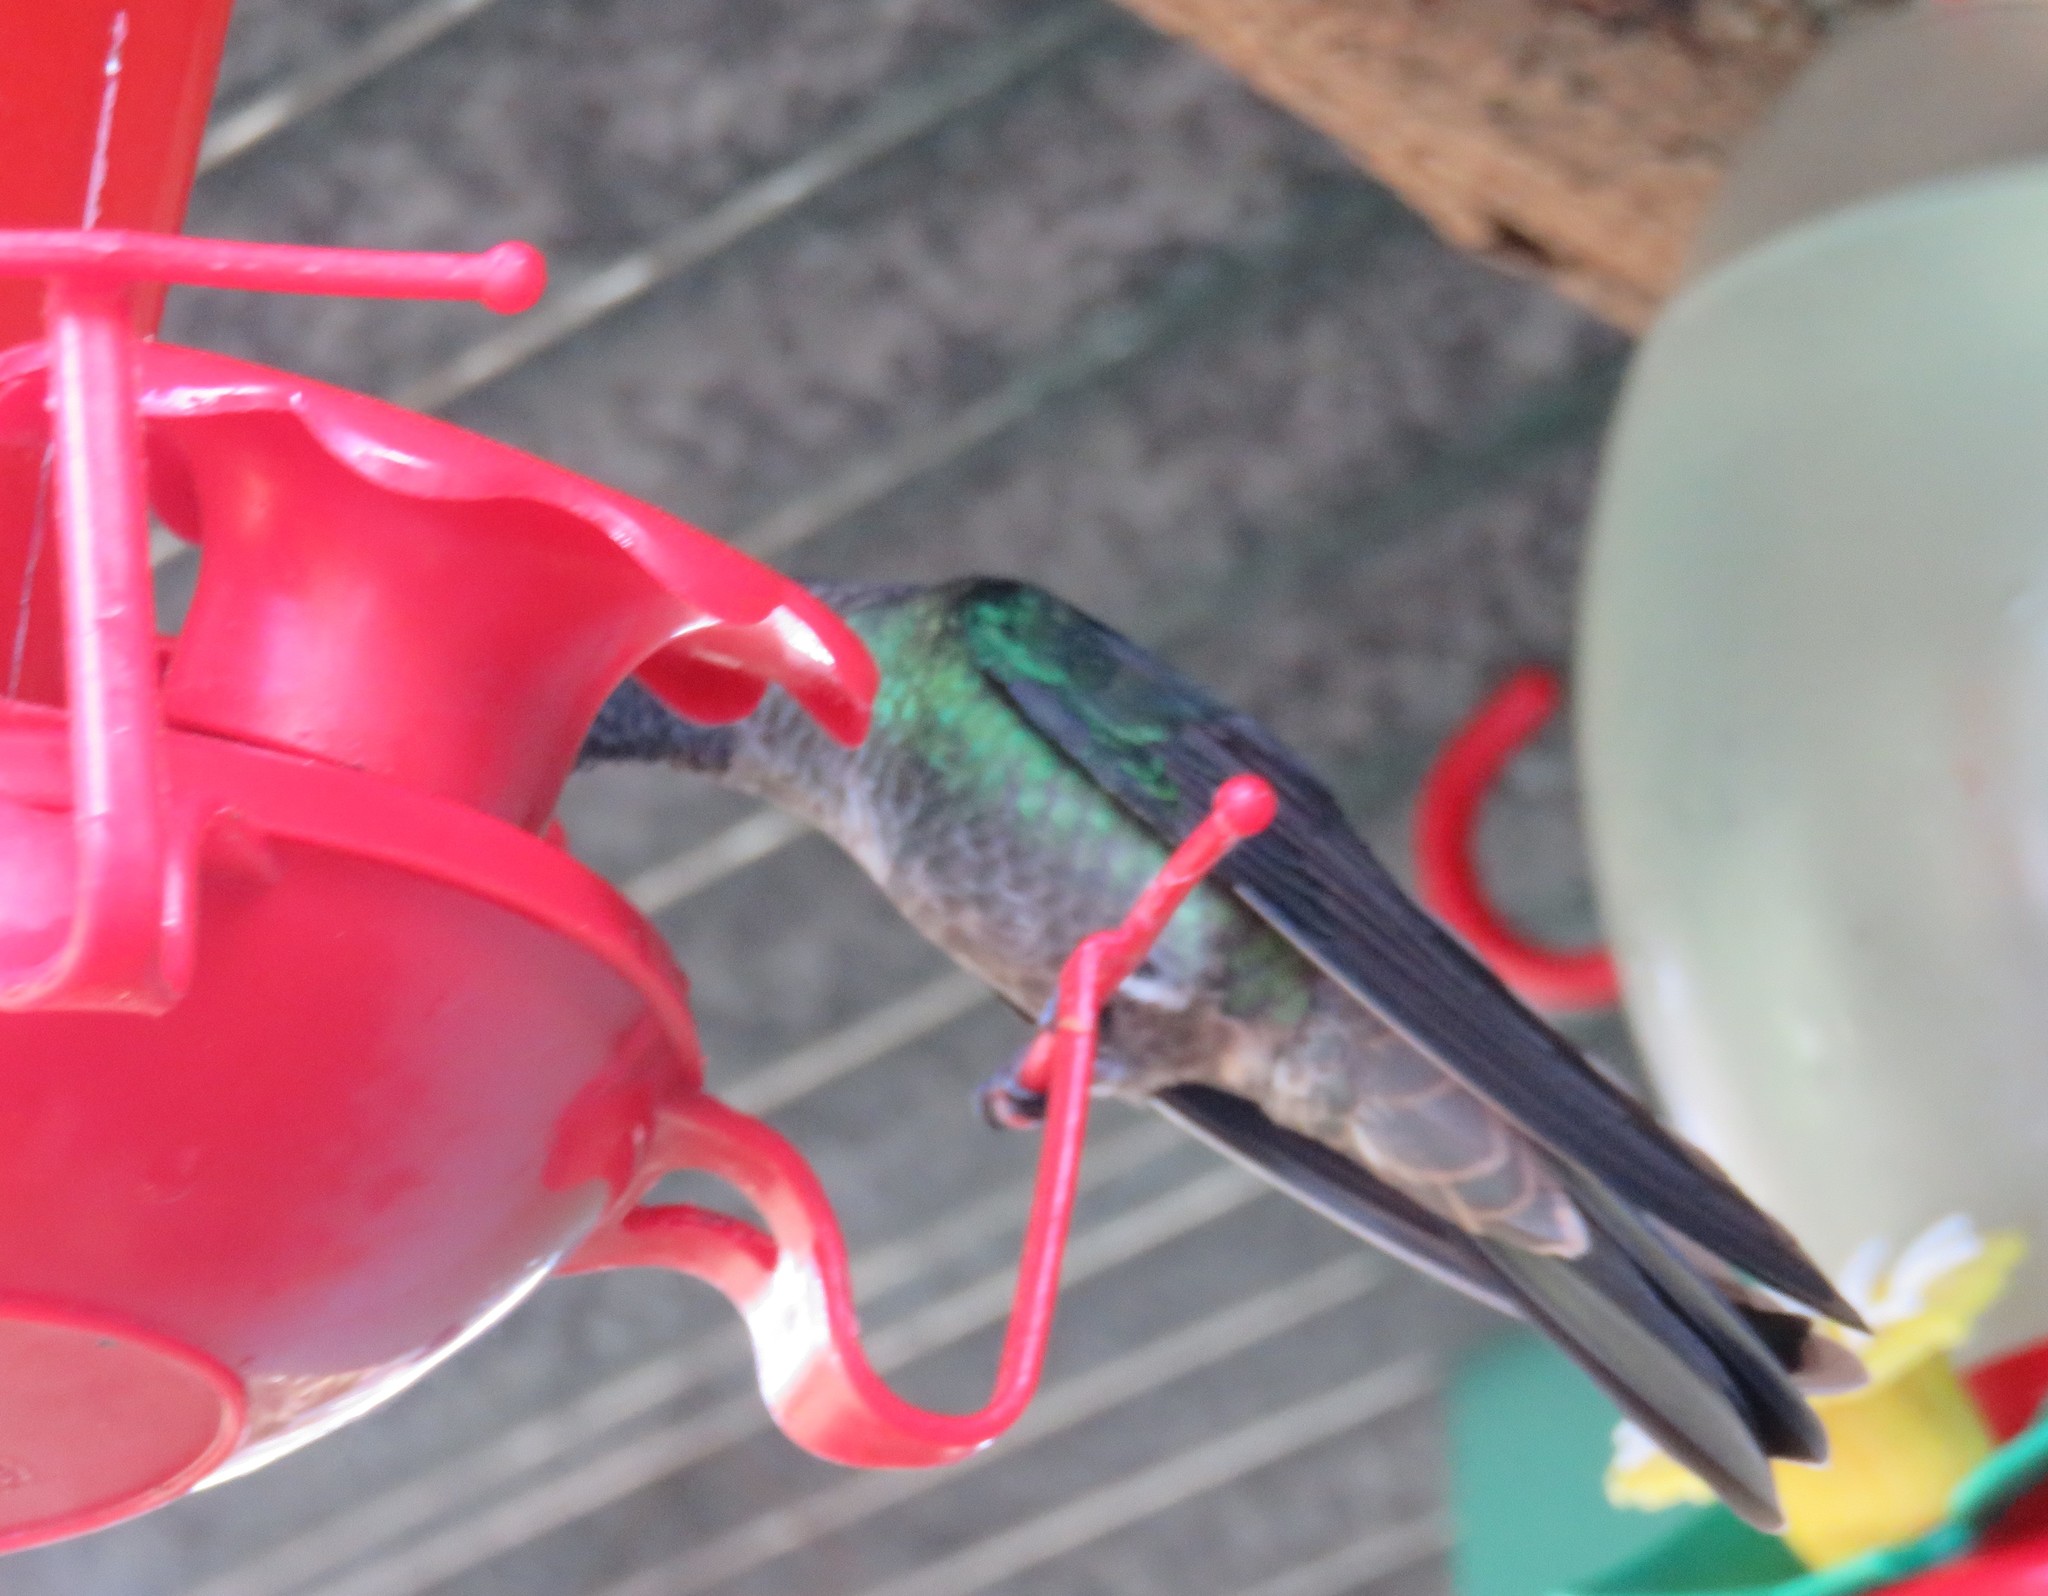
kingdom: Animalia
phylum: Chordata
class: Aves
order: Apodiformes
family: Trochilidae
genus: Eugenes
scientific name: Eugenes spectabilis
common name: Talamanca hummingbird
